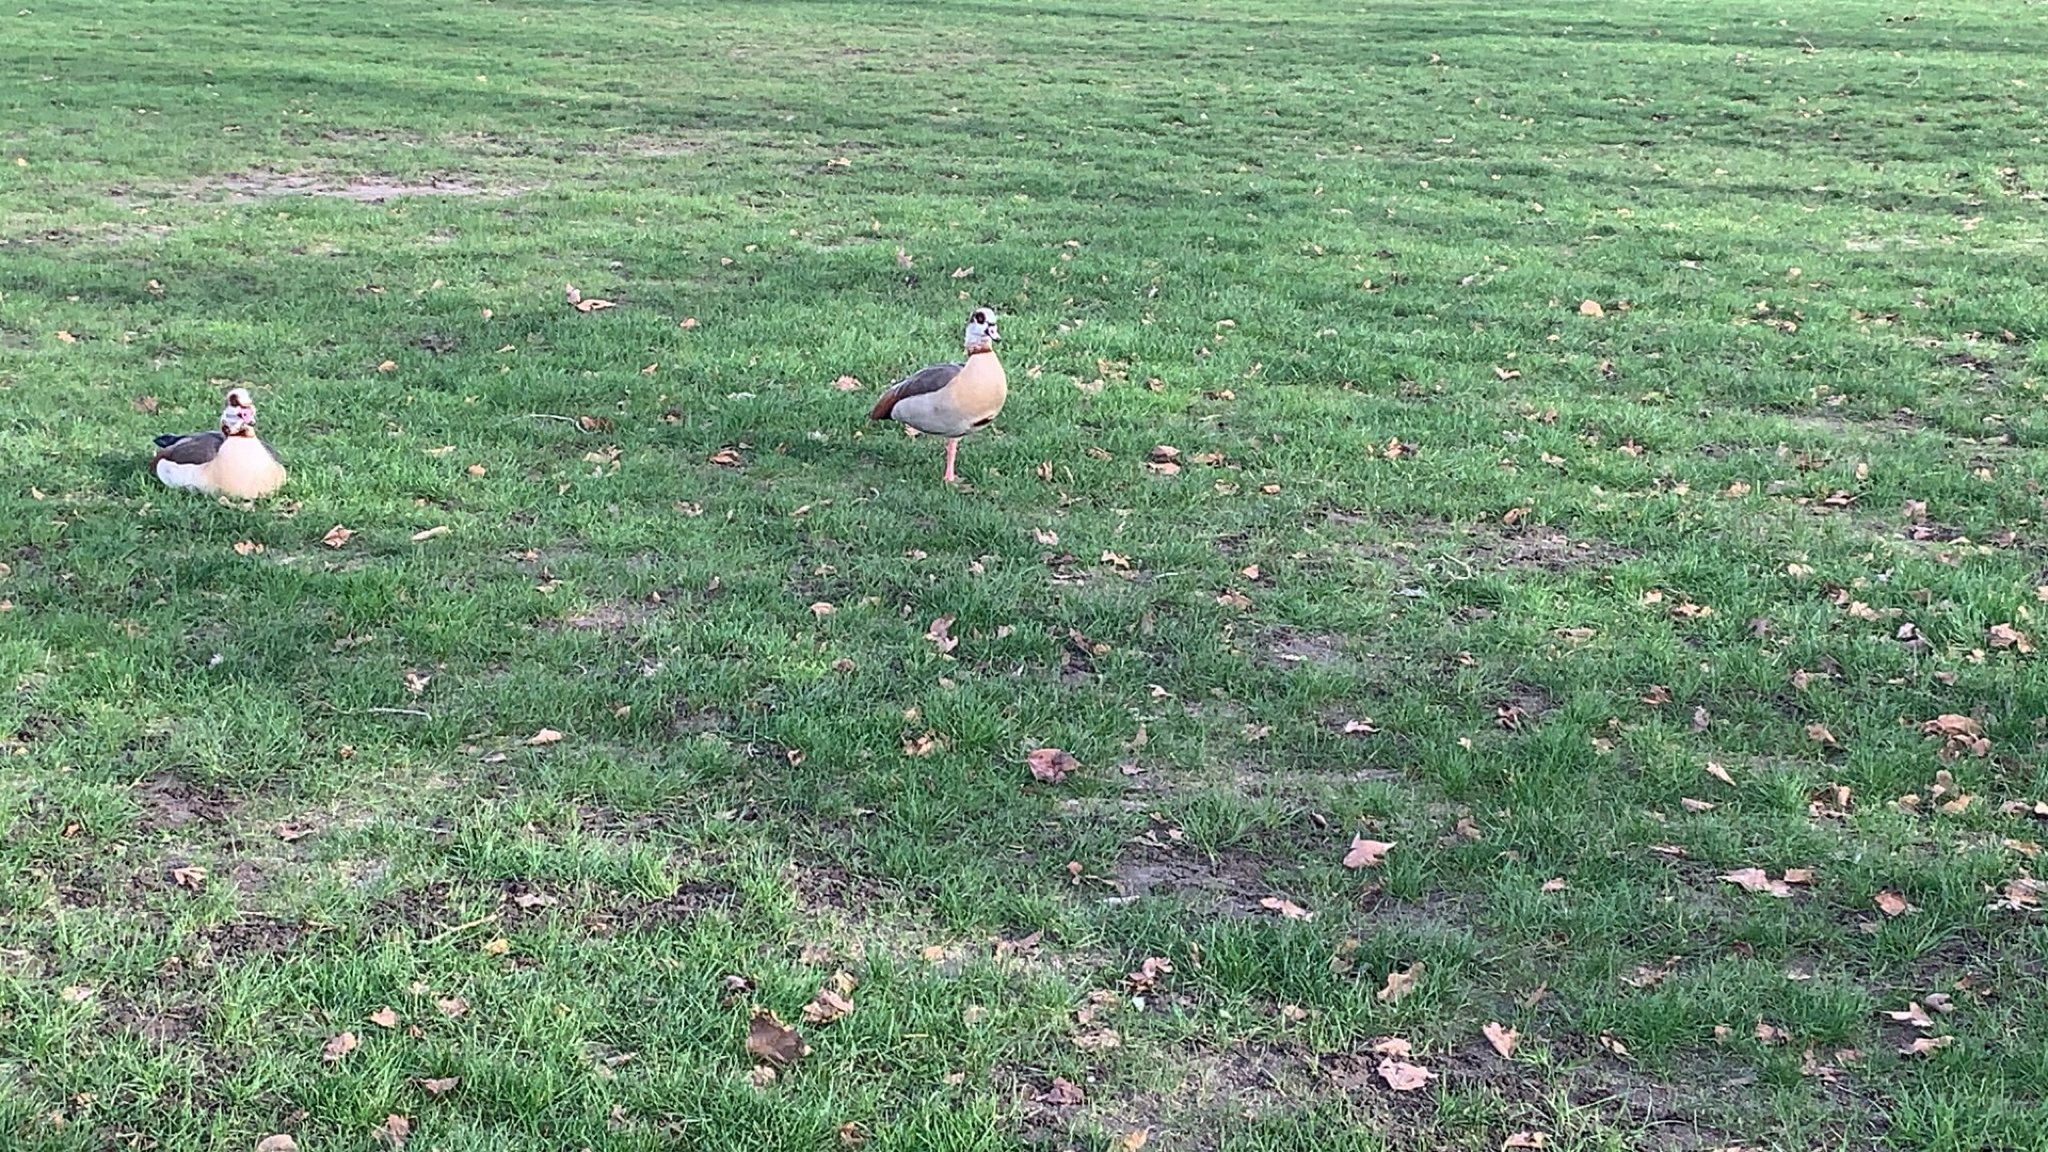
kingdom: Animalia
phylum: Chordata
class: Aves
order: Anseriformes
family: Anatidae
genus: Alopochen
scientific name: Alopochen aegyptiaca
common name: Egyptian goose
